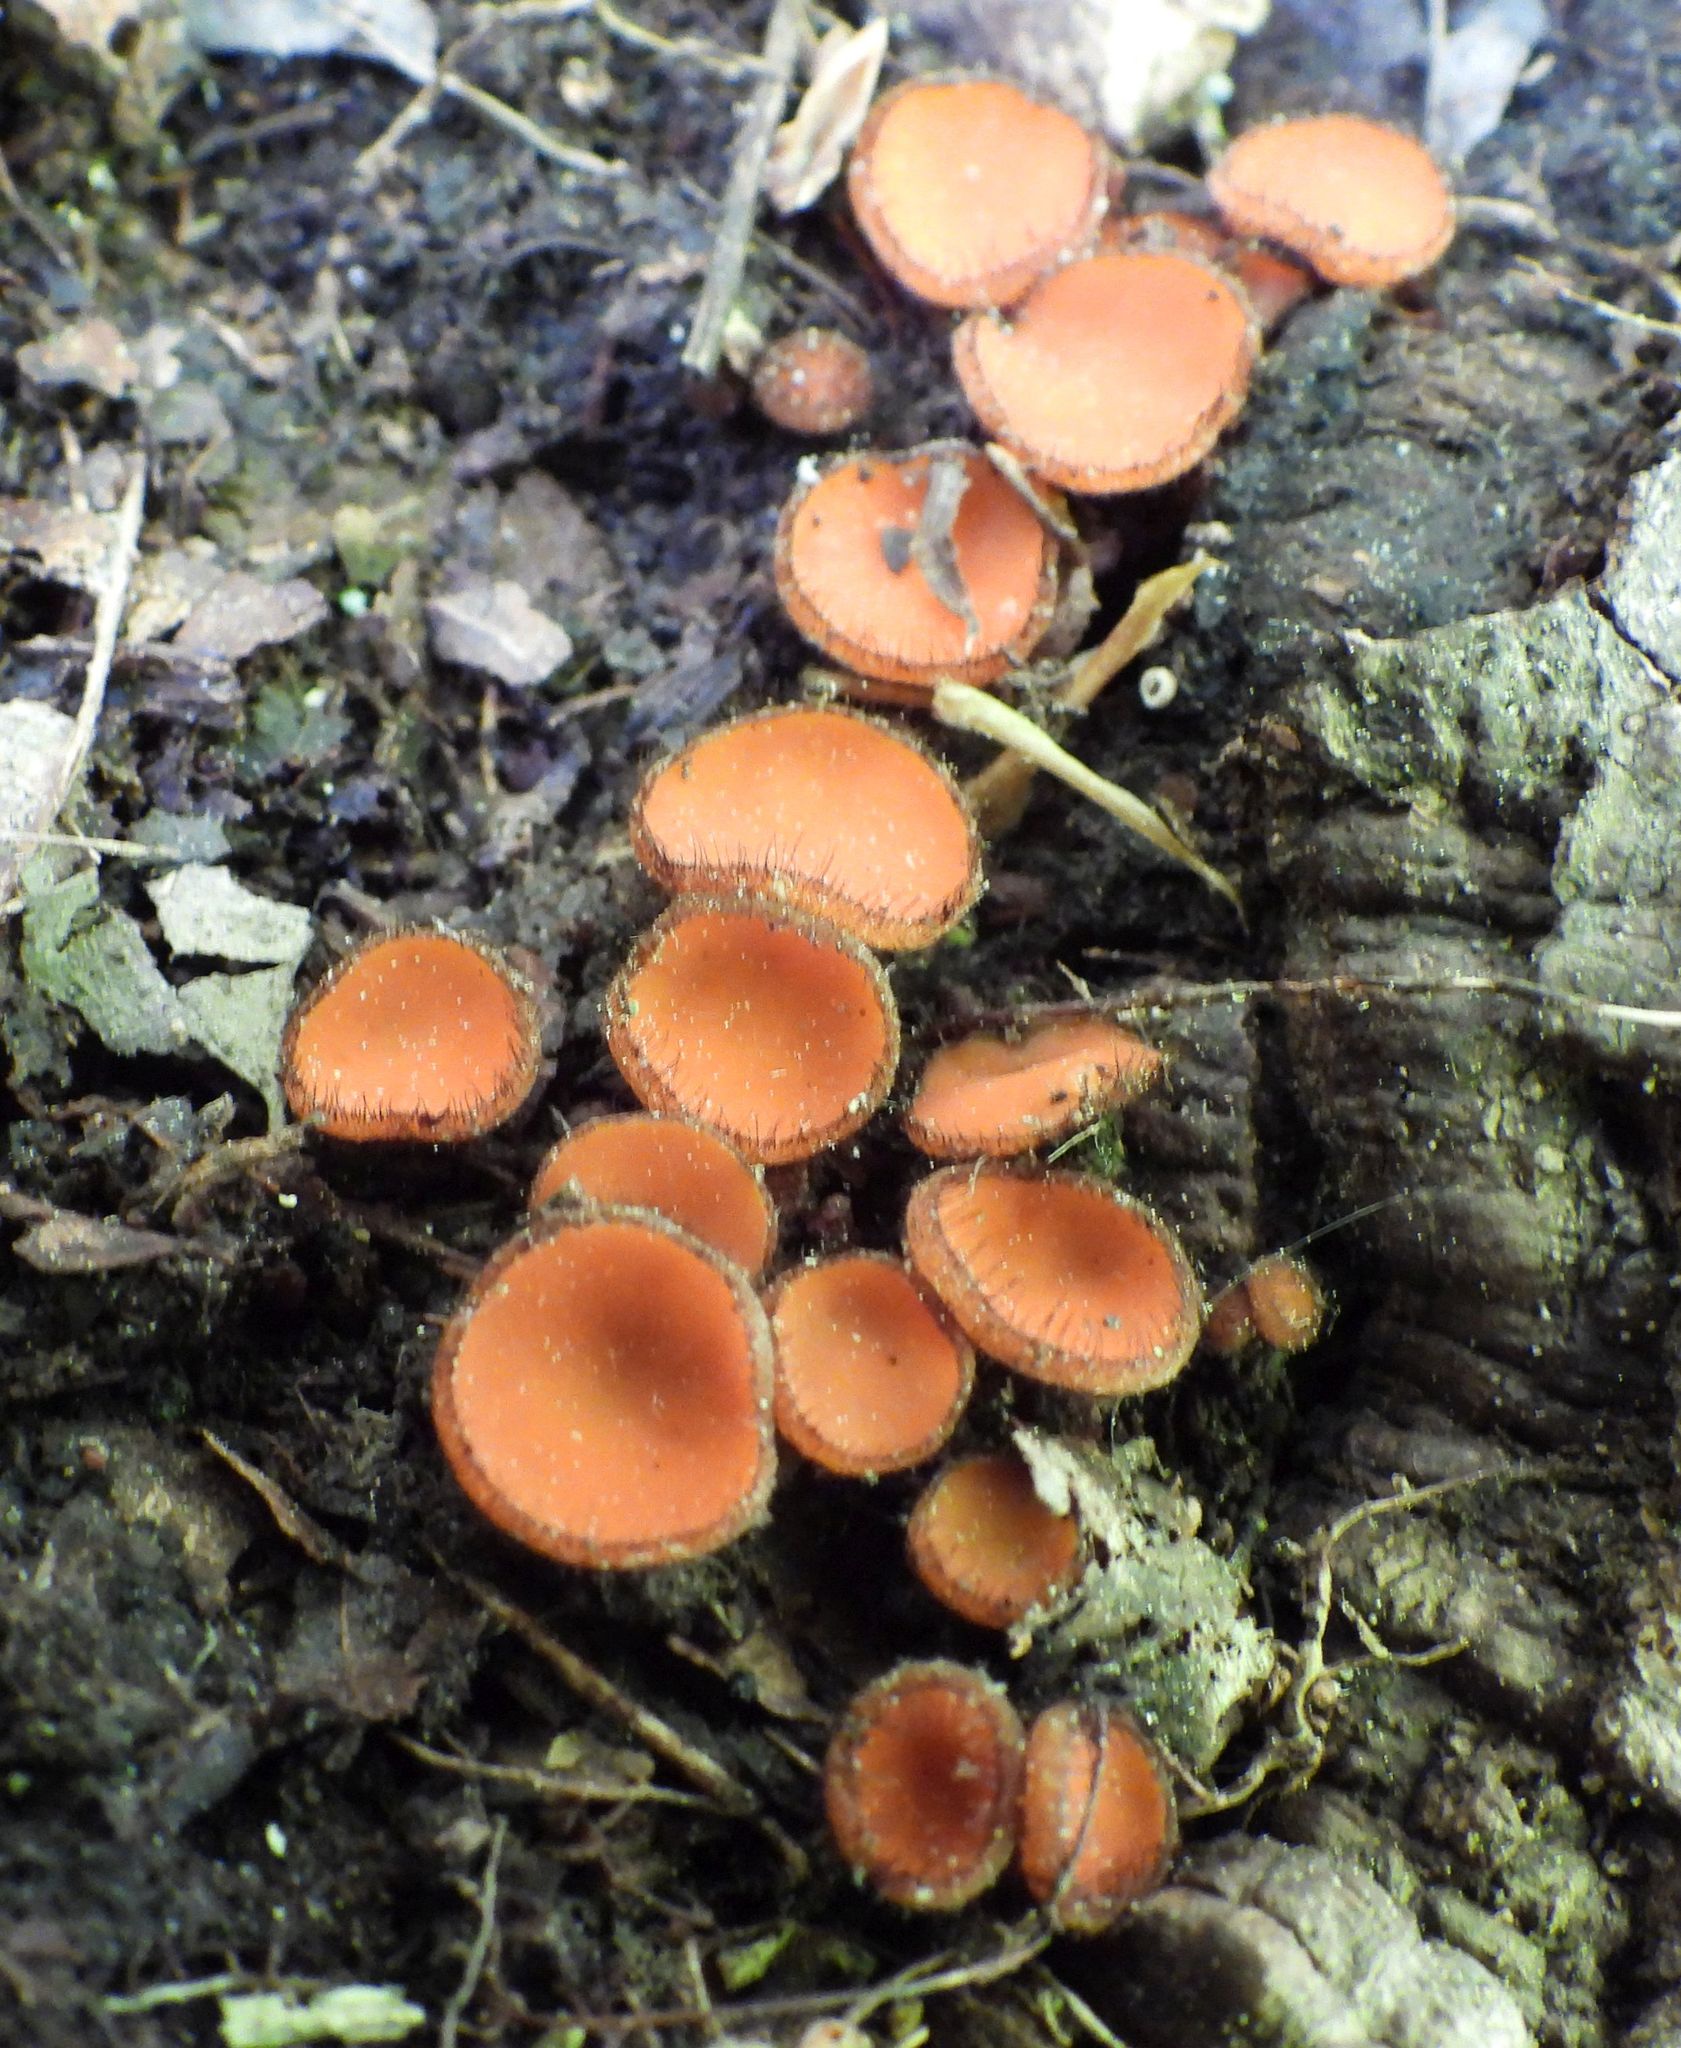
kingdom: Fungi
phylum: Ascomycota
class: Pezizomycetes
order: Pezizales
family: Pyronemataceae
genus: Scutellinia
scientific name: Scutellinia
